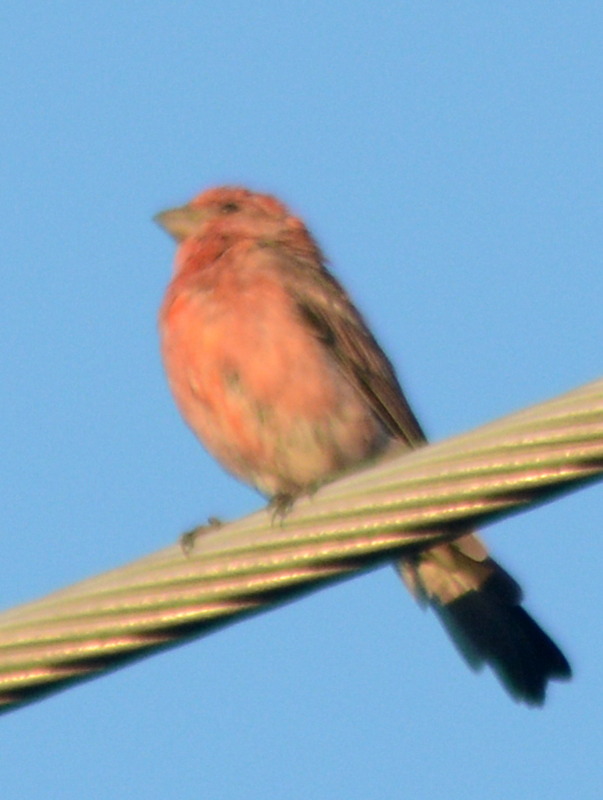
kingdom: Animalia
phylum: Chordata
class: Aves
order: Passeriformes
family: Fringillidae
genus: Haemorhous
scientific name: Haemorhous mexicanus
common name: House finch
